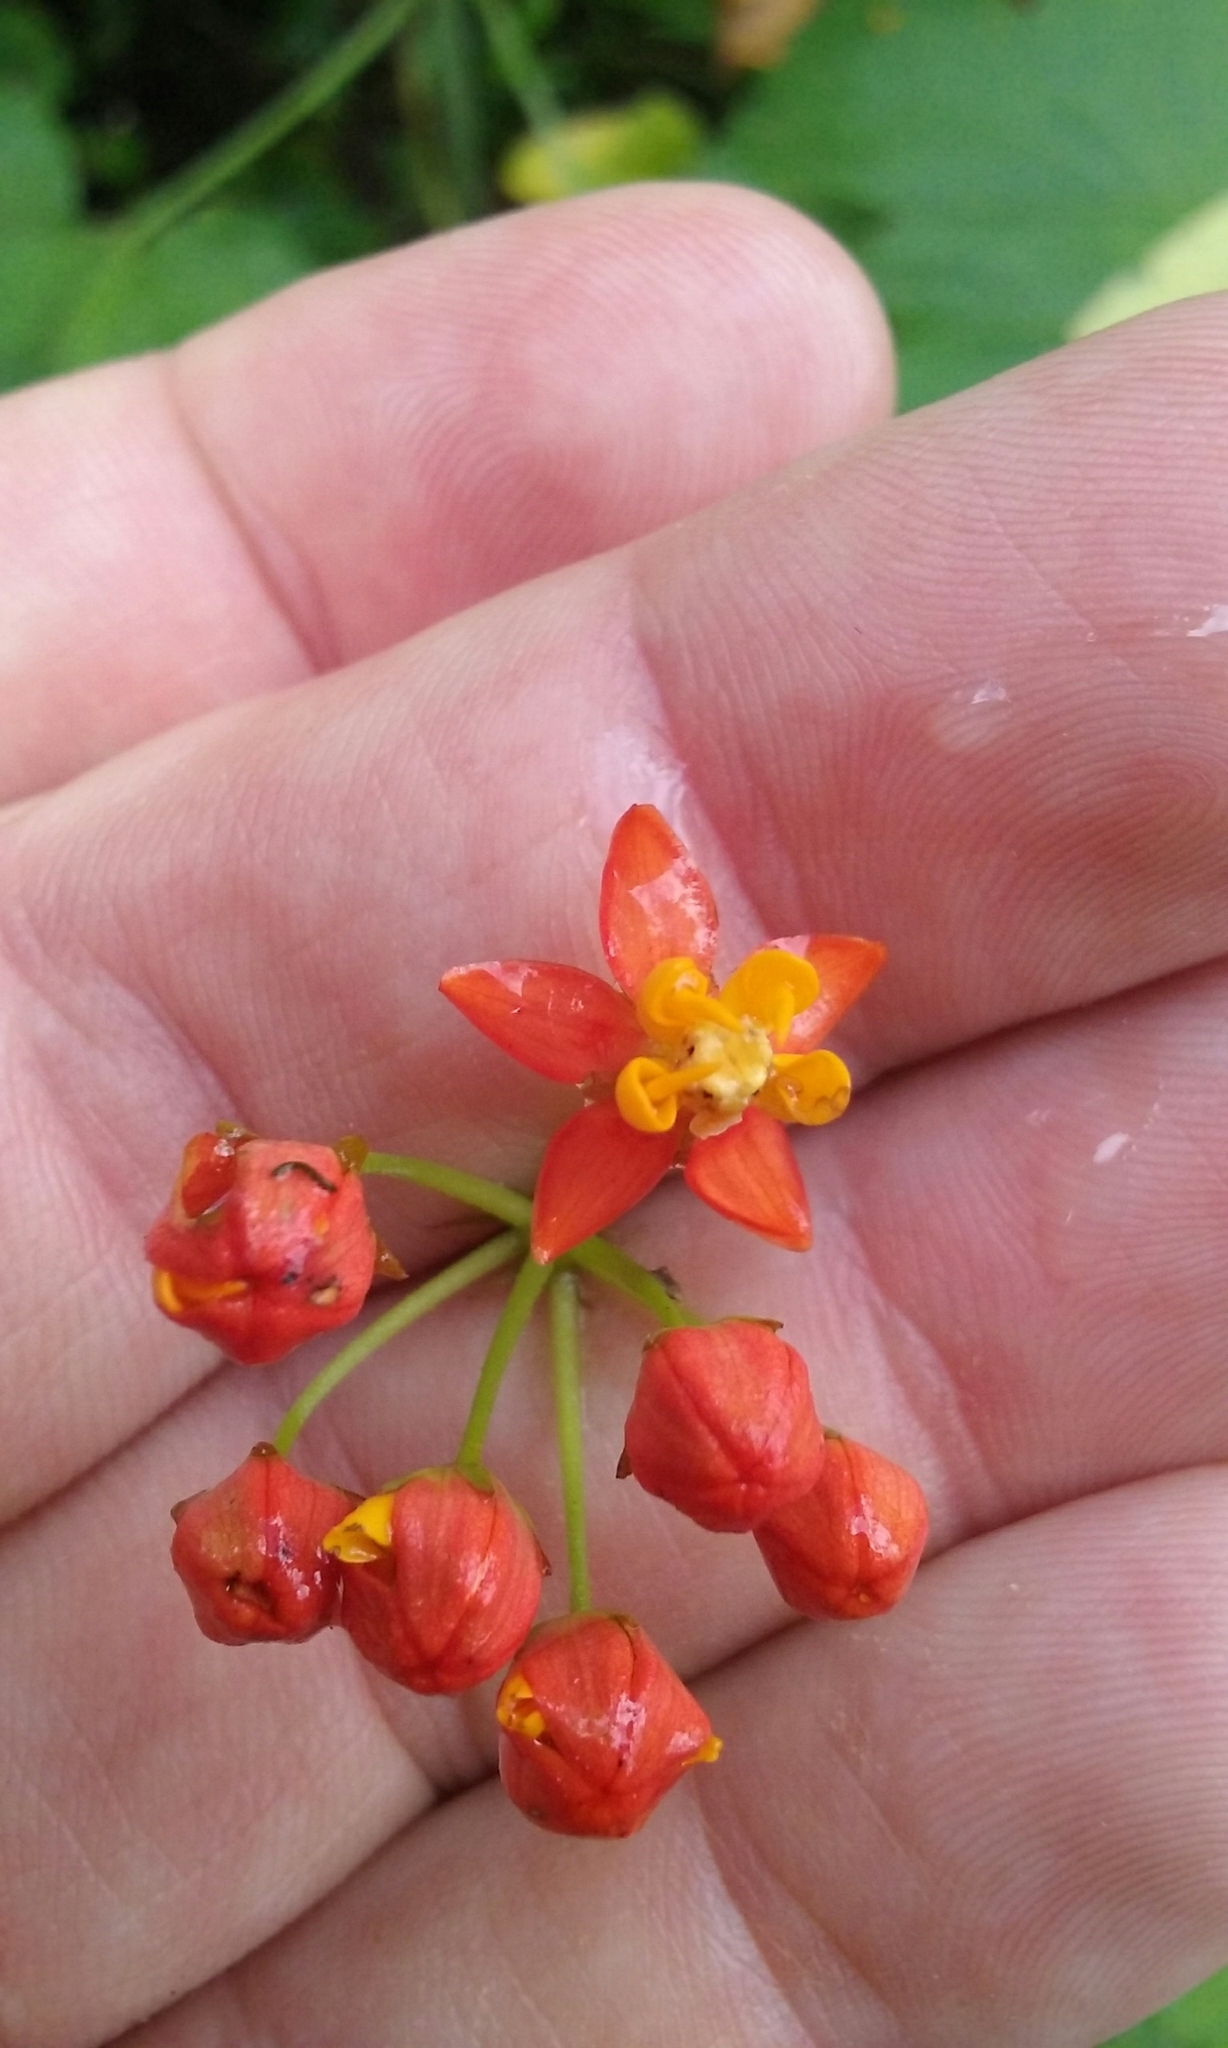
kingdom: Plantae
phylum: Tracheophyta
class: Magnoliopsida
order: Gentianales
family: Apocynaceae
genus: Asclepias
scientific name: Asclepias curassavica
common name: Bloodflower
